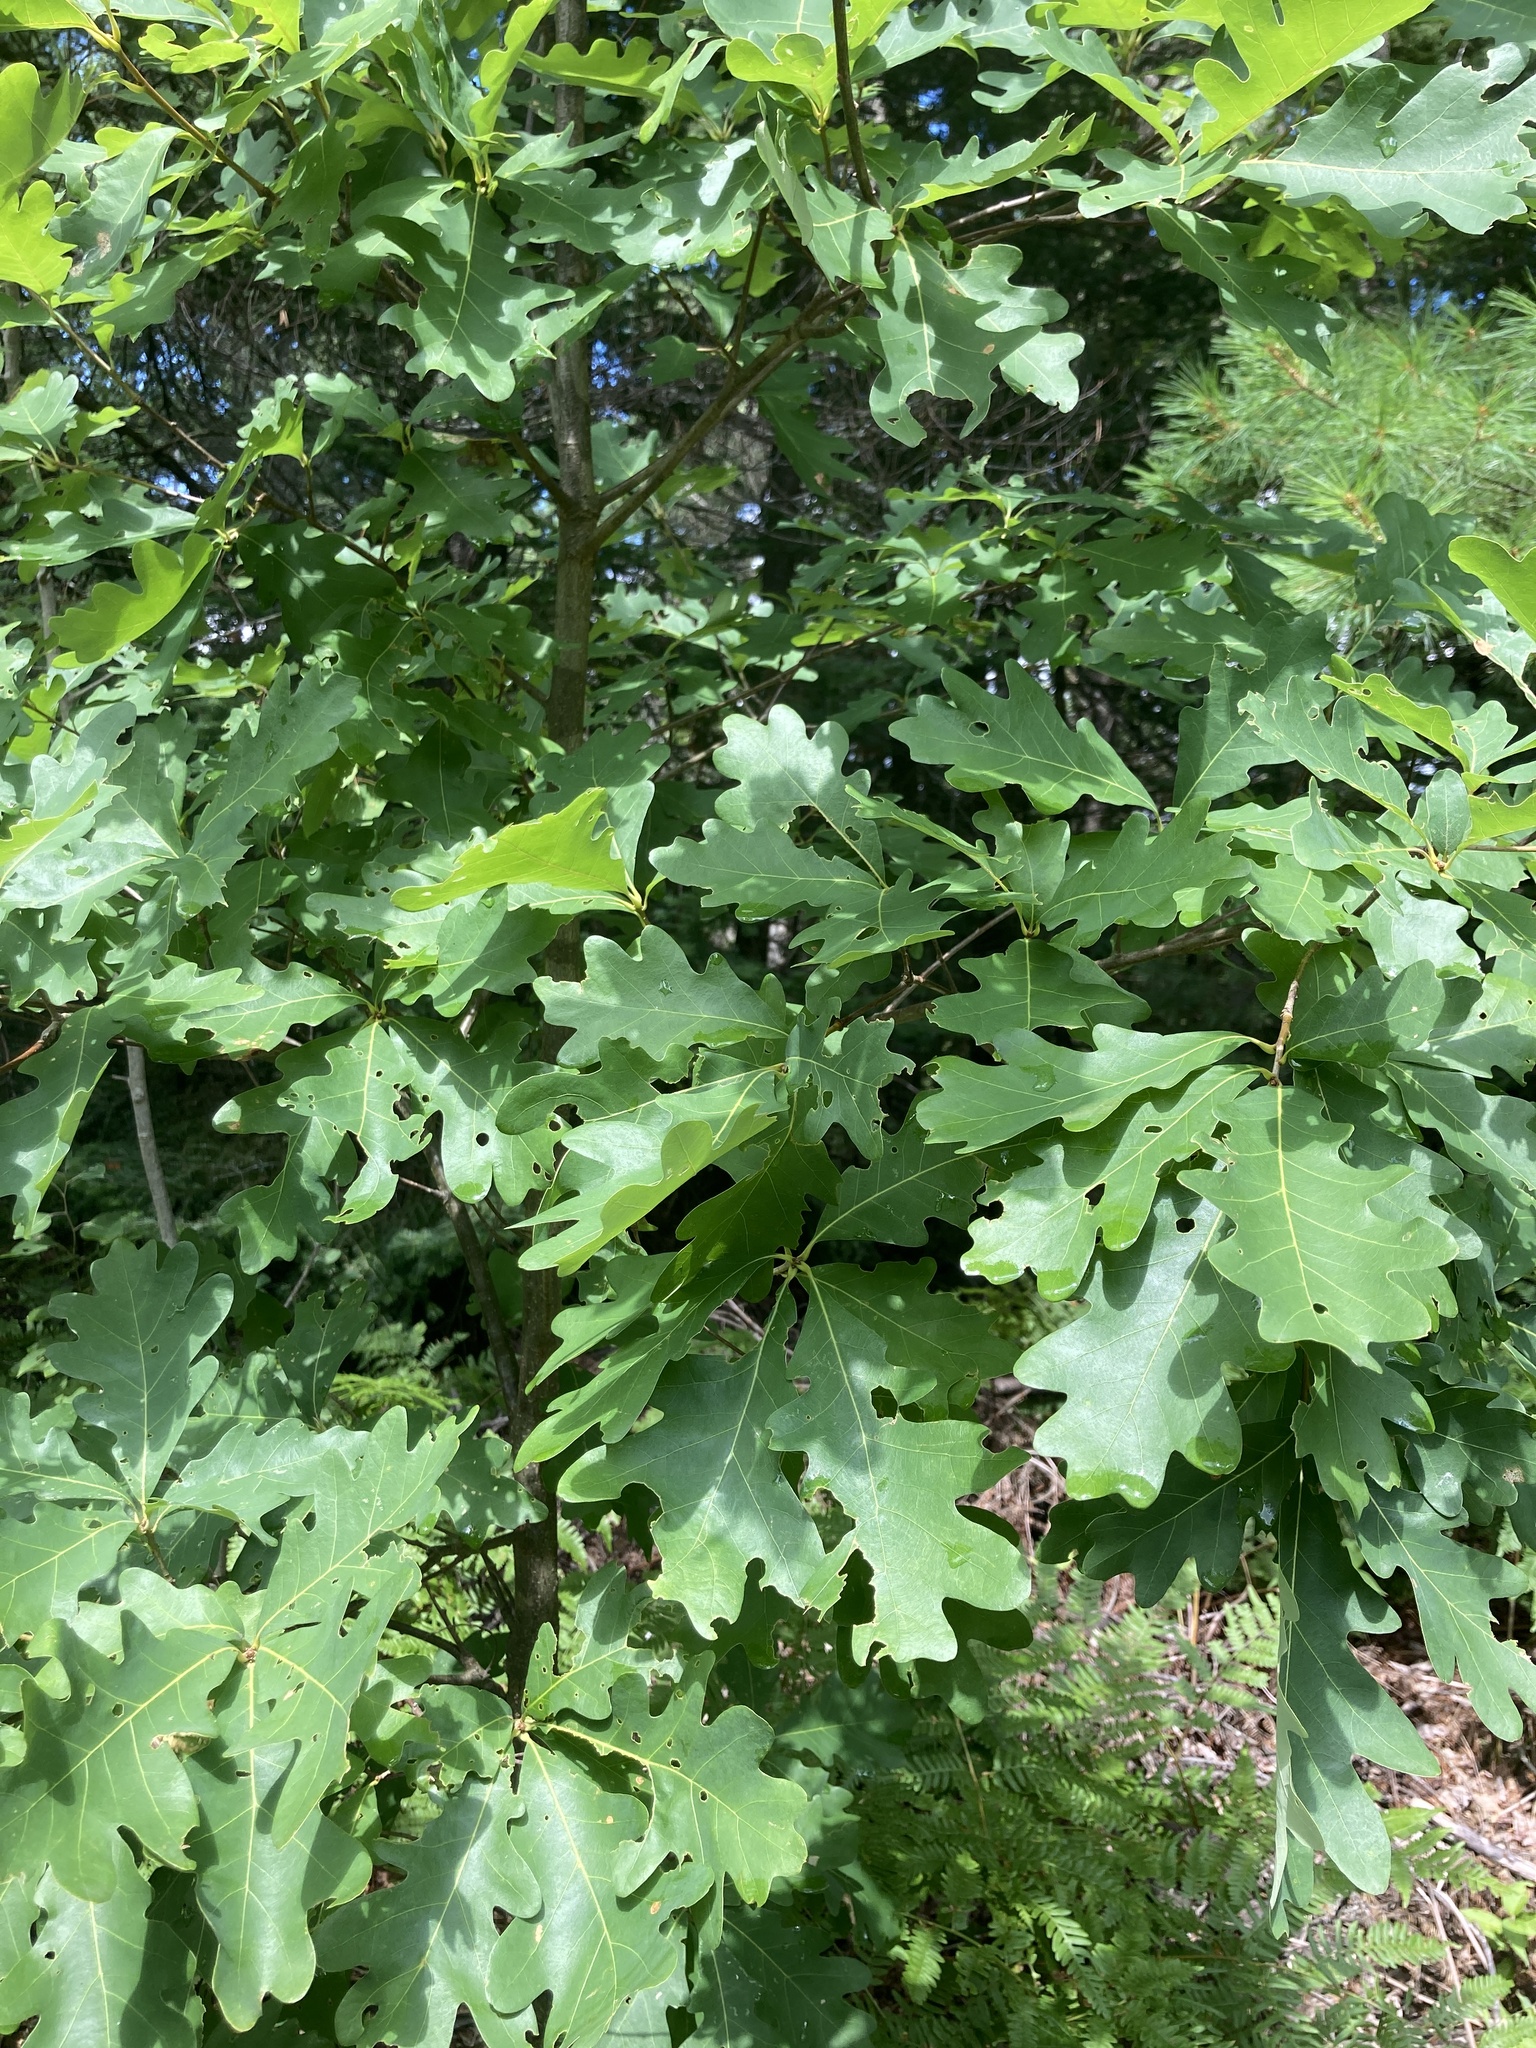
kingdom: Plantae
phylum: Tracheophyta
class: Magnoliopsida
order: Fagales
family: Fagaceae
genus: Quercus
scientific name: Quercus alba
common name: White oak
